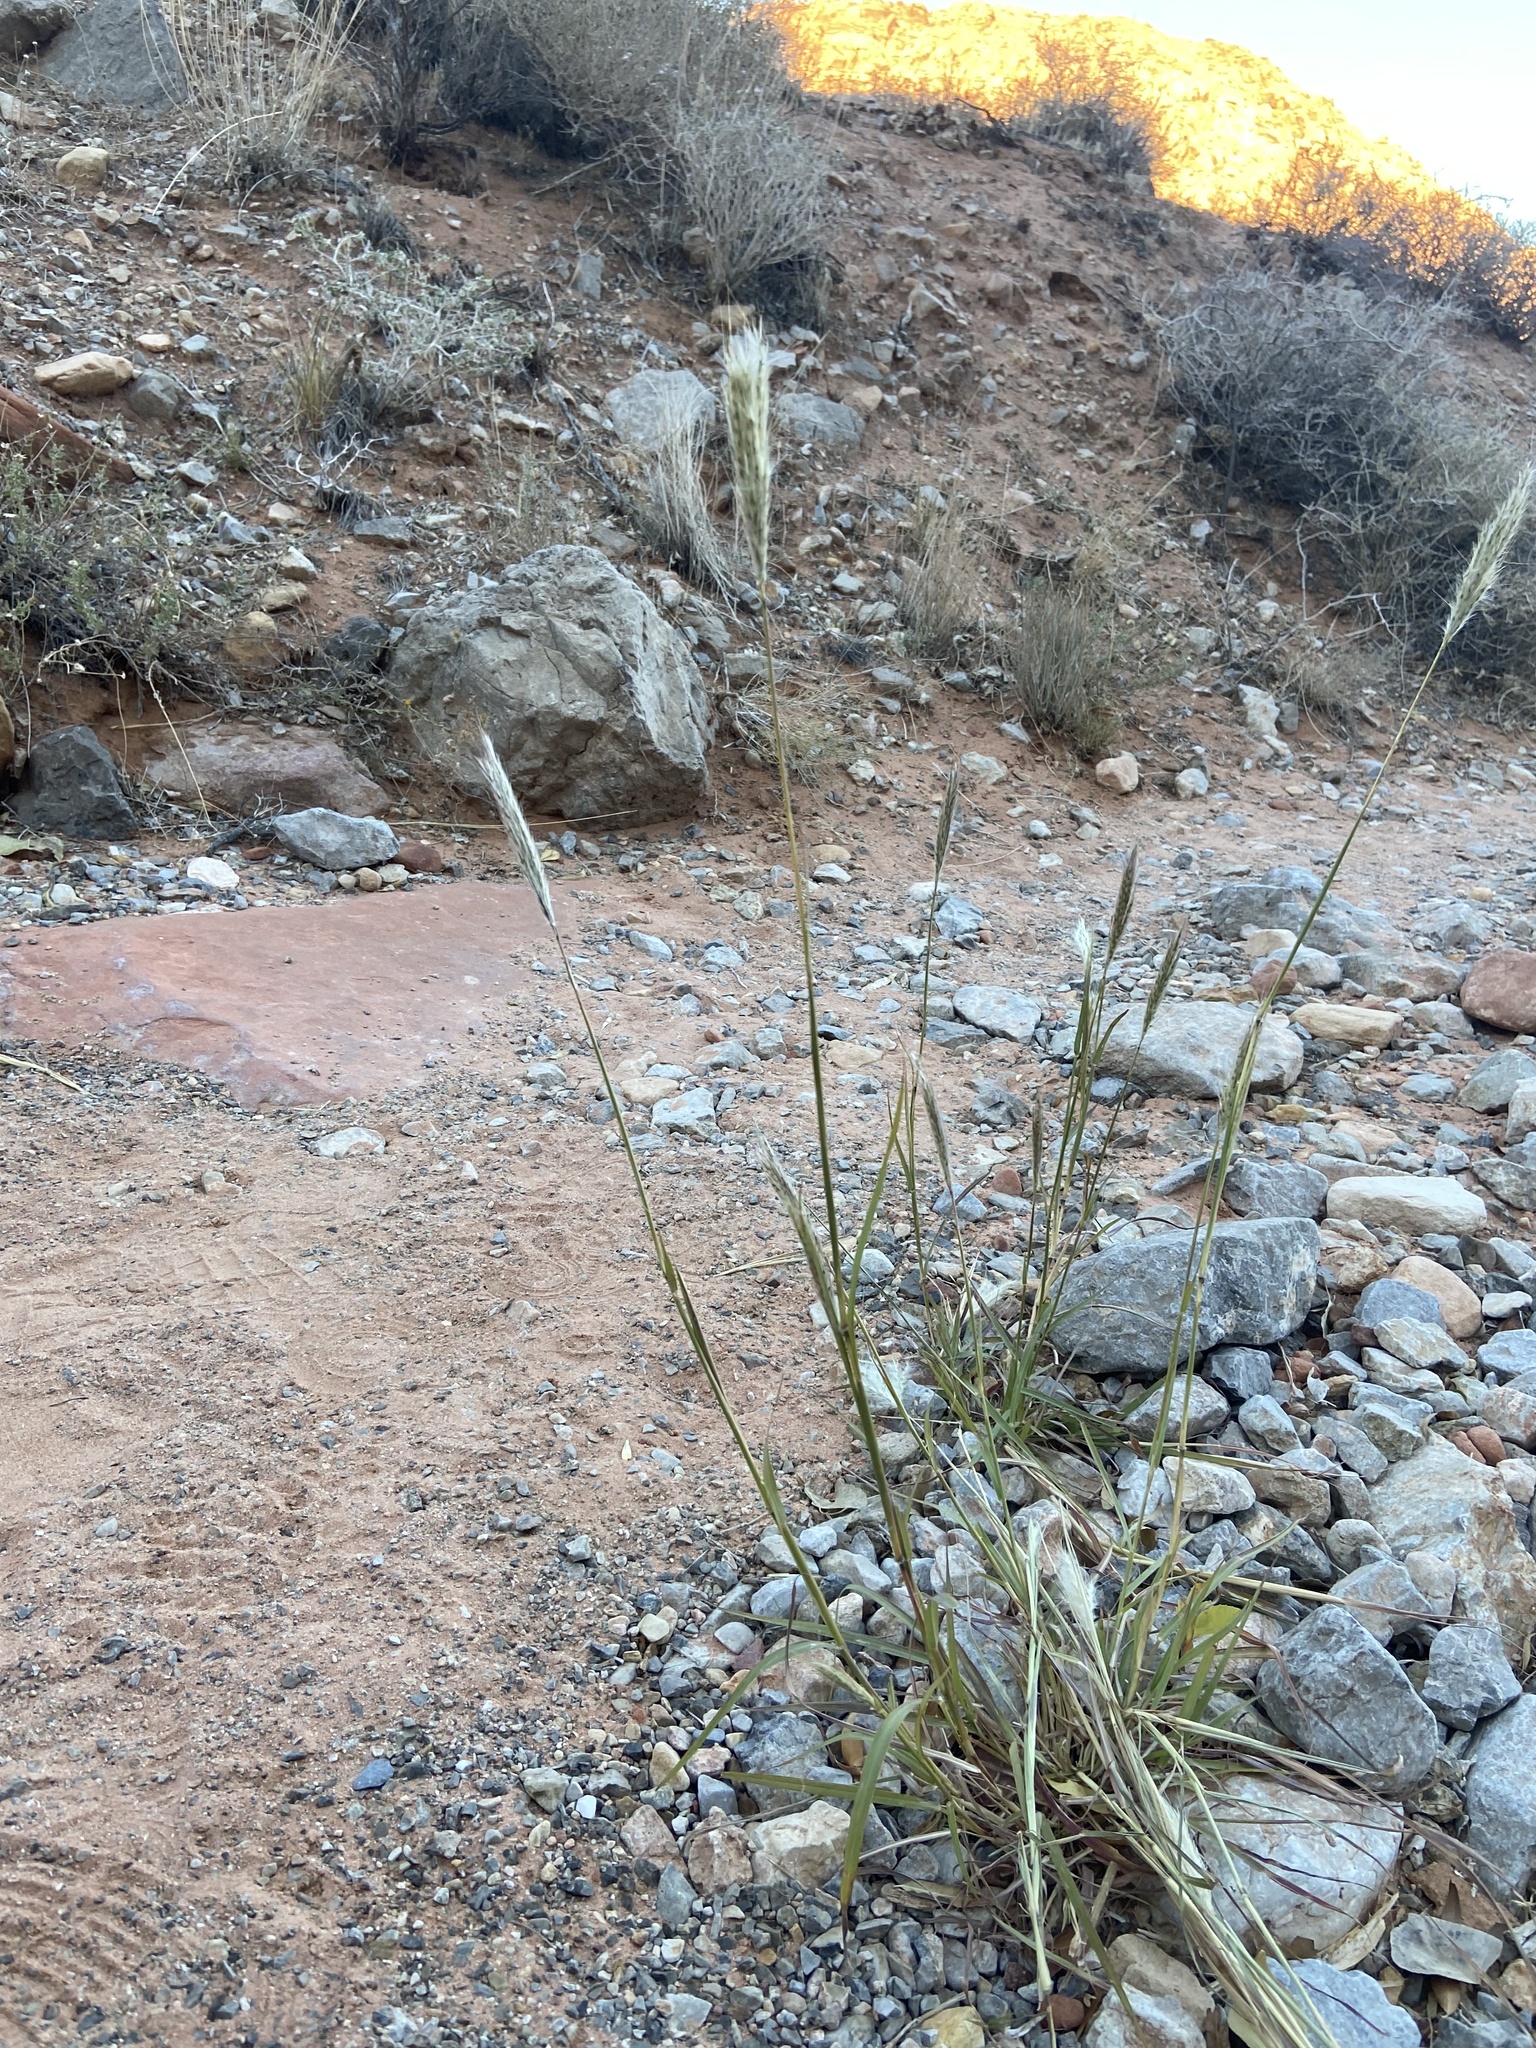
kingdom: Plantae
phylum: Tracheophyta
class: Liliopsida
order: Poales
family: Poaceae
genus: Bothriochloa
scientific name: Bothriochloa barbinodis
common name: Cane bluestem
